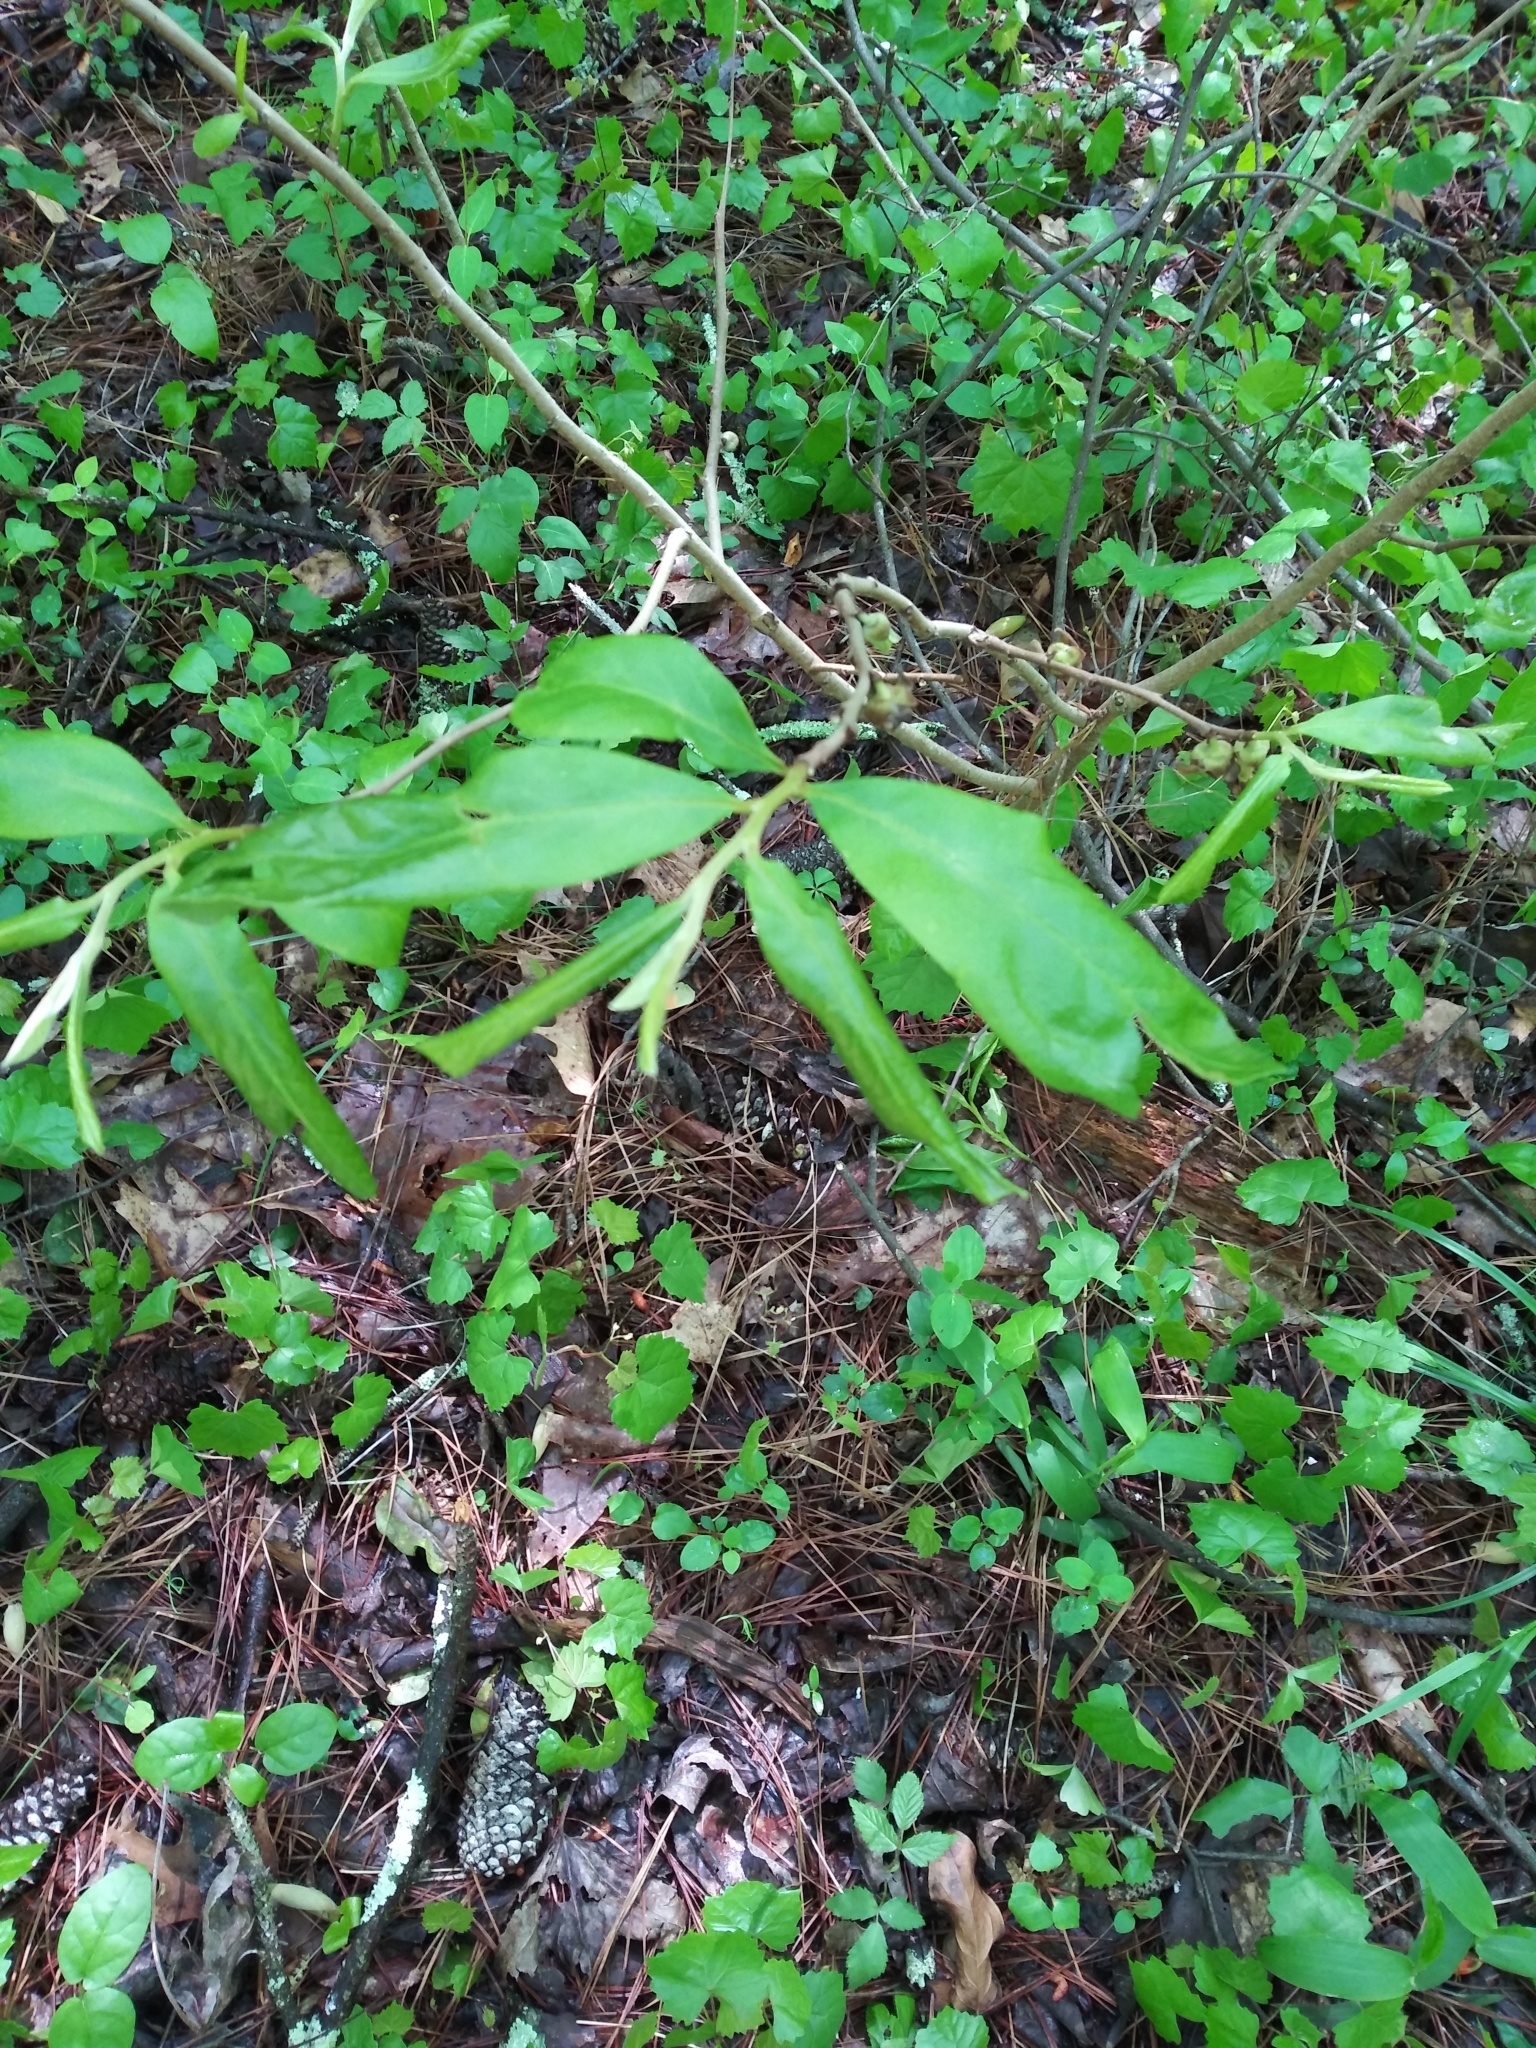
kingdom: Plantae
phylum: Tracheophyta
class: Magnoliopsida
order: Magnoliales
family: Annonaceae
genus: Asimina
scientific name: Asimina parviflora
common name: Dwarf pawpaw
